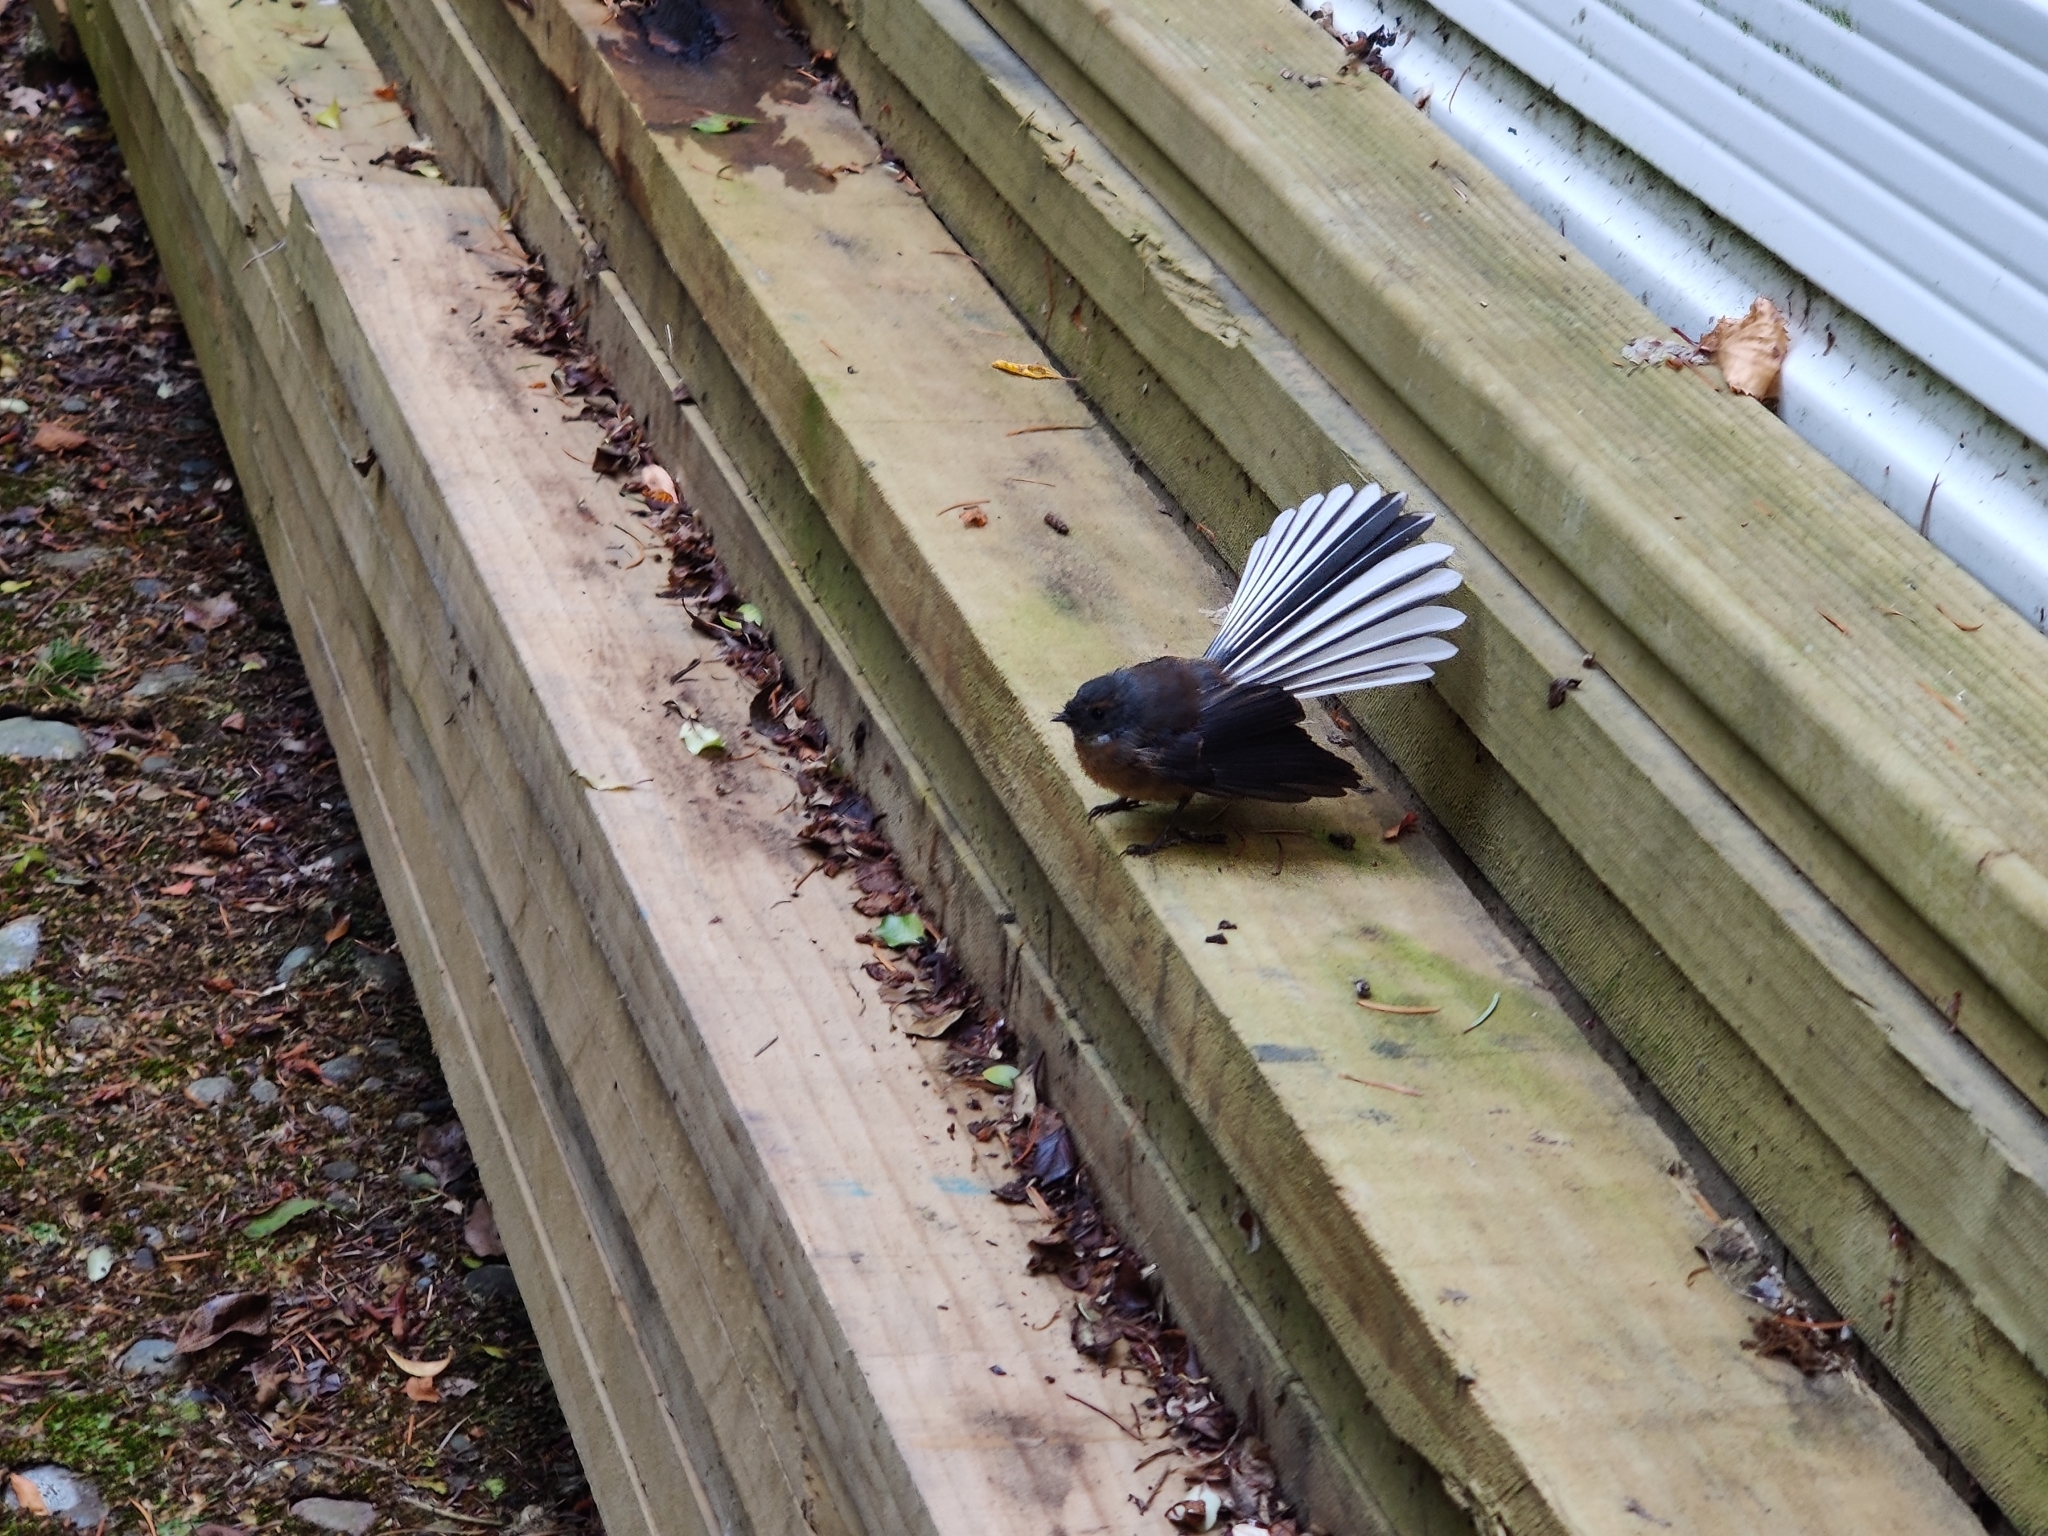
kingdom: Animalia
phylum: Chordata
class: Aves
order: Passeriformes
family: Rhipiduridae
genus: Rhipidura
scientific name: Rhipidura fuliginosa
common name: New zealand fantail
